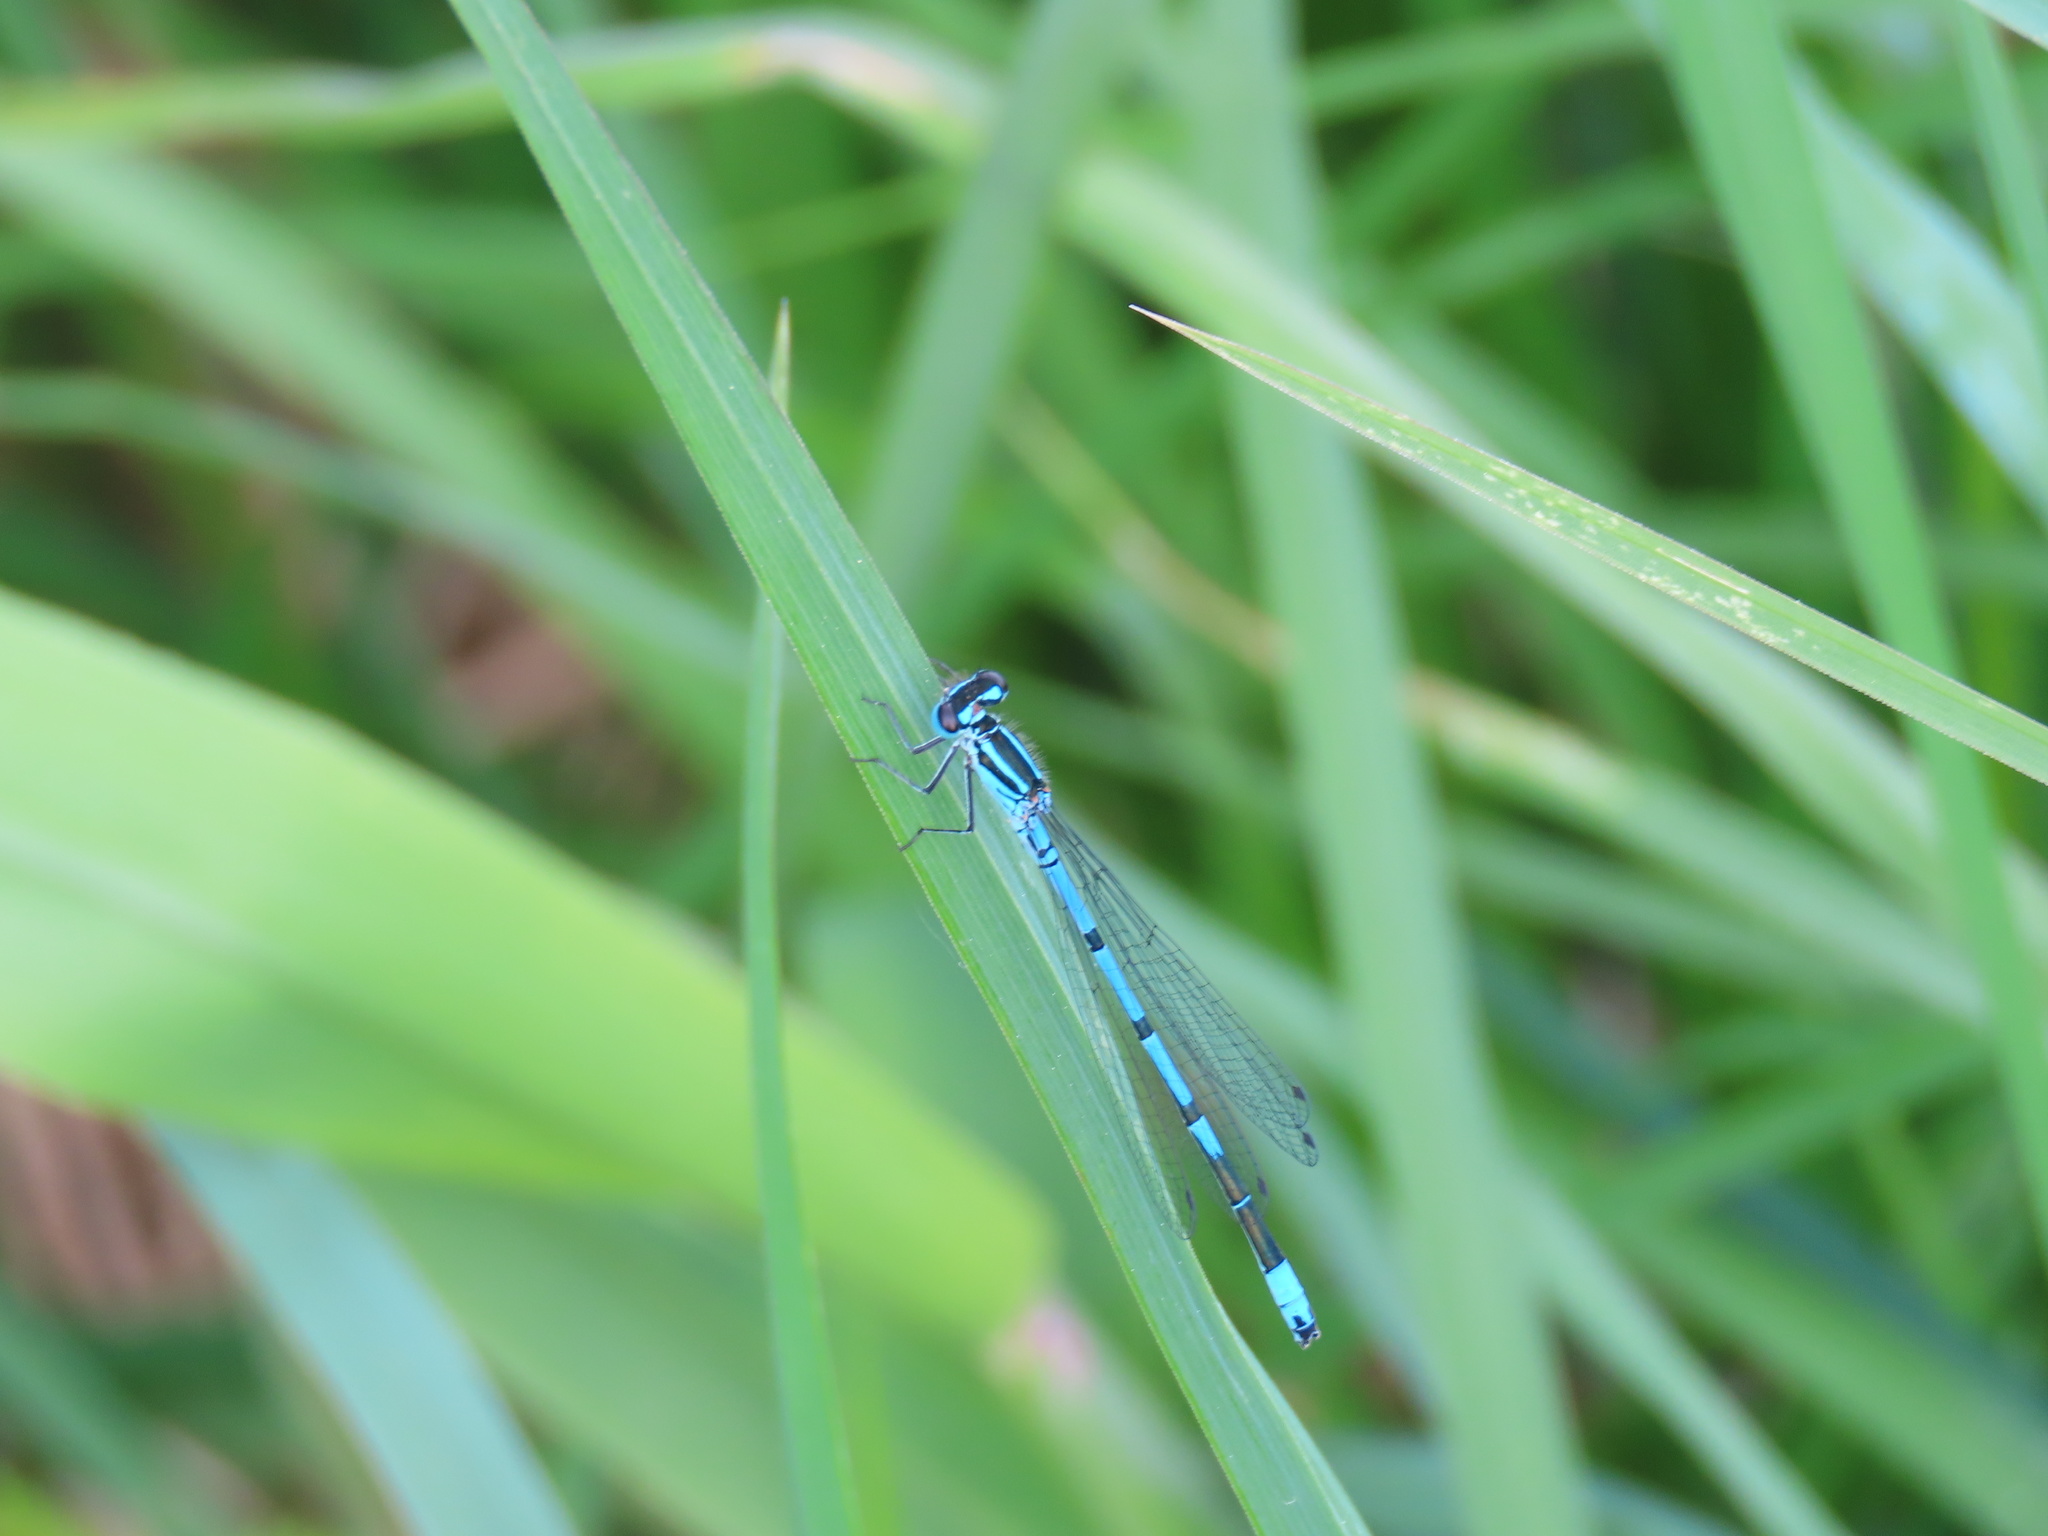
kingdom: Animalia
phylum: Arthropoda
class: Insecta
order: Odonata
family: Coenagrionidae
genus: Coenagrion
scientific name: Coenagrion puella
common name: Azure damselfly
